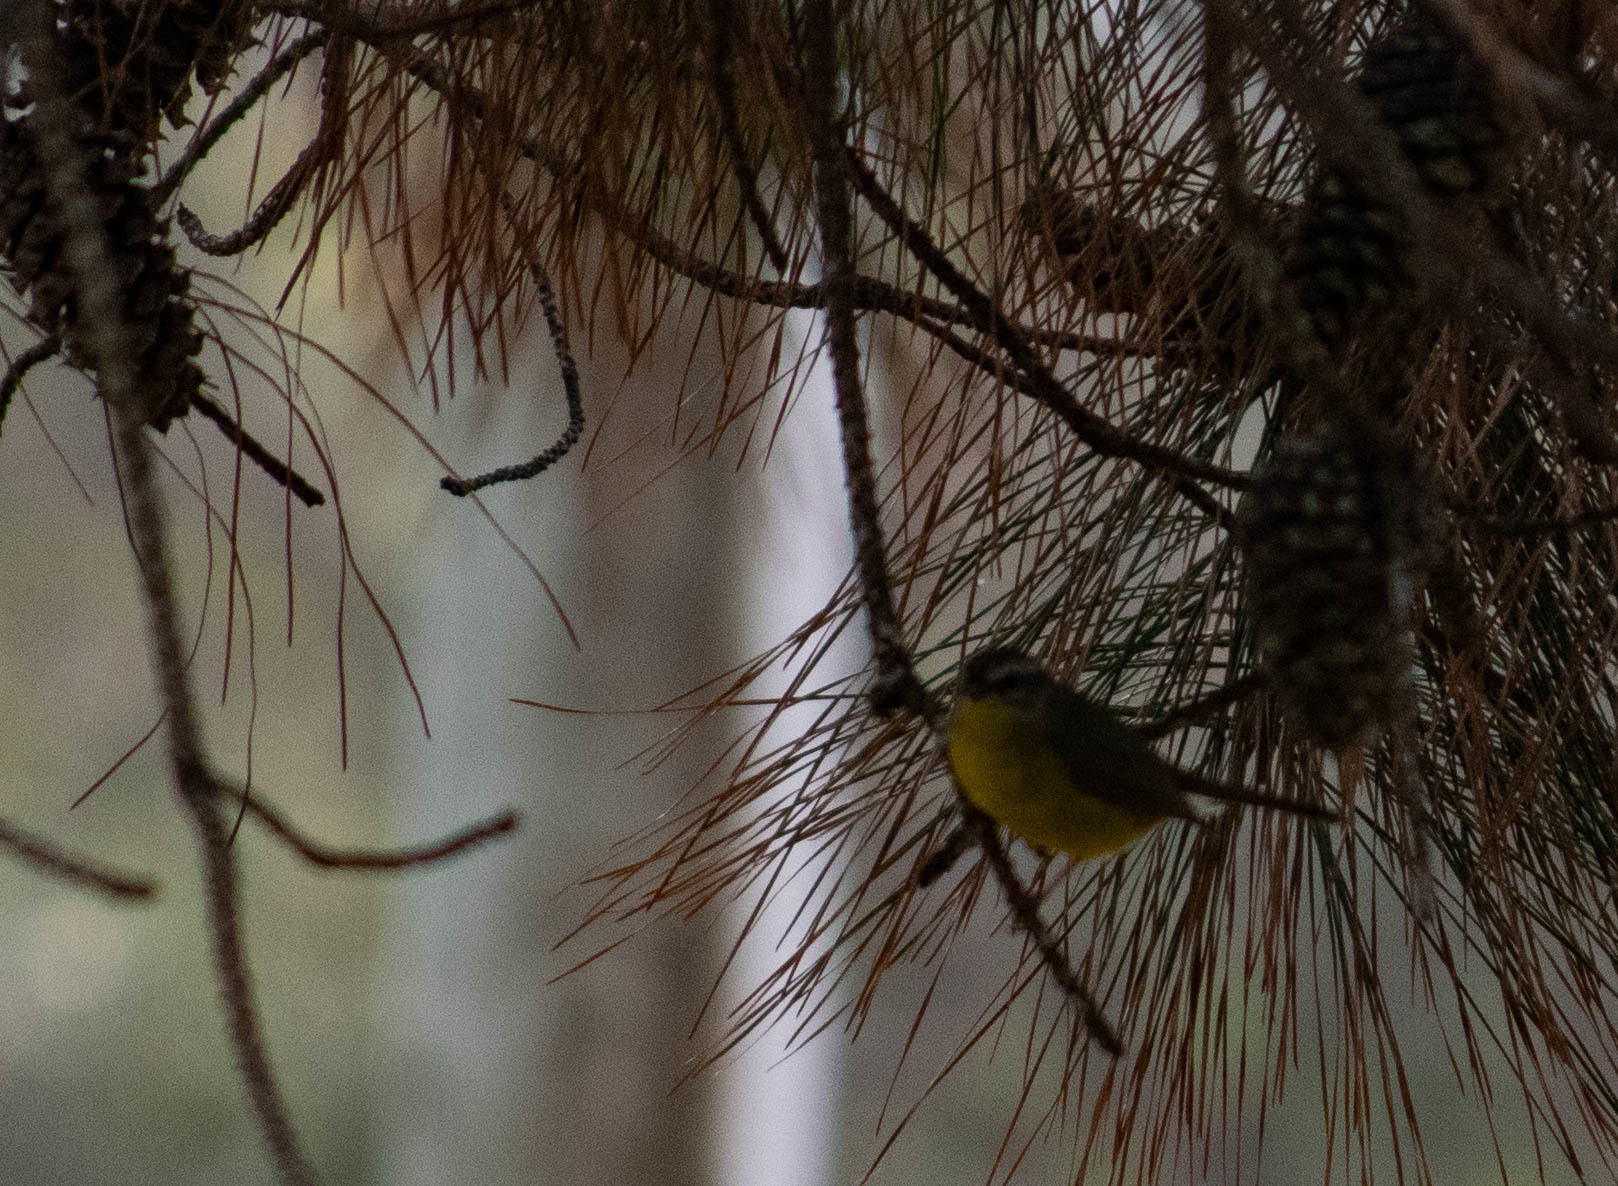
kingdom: Animalia
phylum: Chordata
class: Aves
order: Passeriformes
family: Parulidae
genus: Basileuterus
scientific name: Basileuterus culicivorus
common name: Golden-crowned warbler
